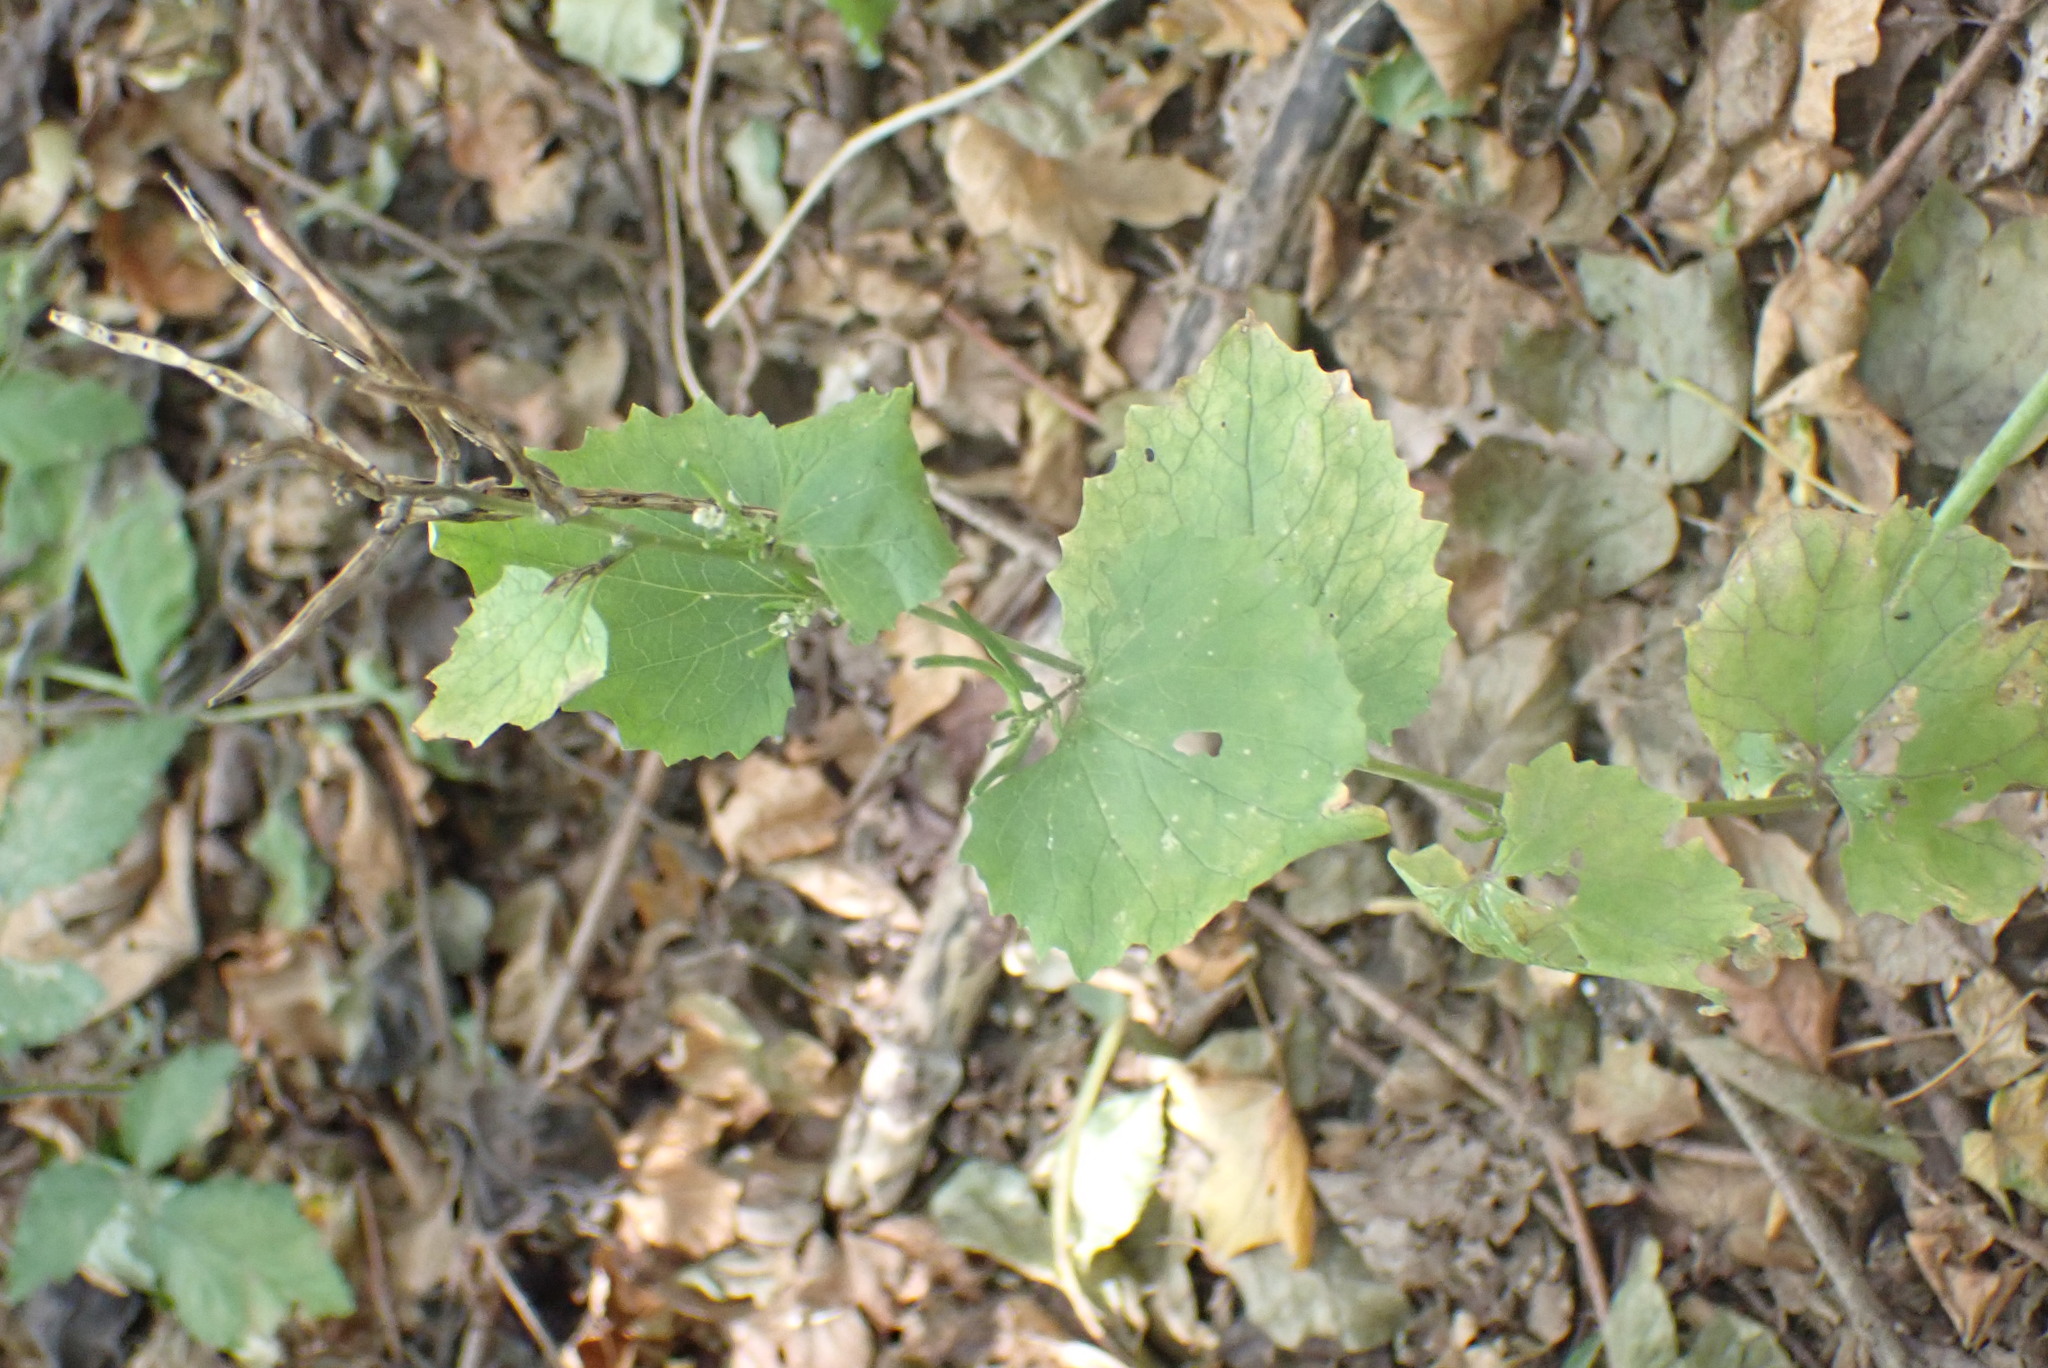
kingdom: Plantae
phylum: Tracheophyta
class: Magnoliopsida
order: Brassicales
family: Brassicaceae
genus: Alliaria
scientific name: Alliaria petiolata
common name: Garlic mustard
